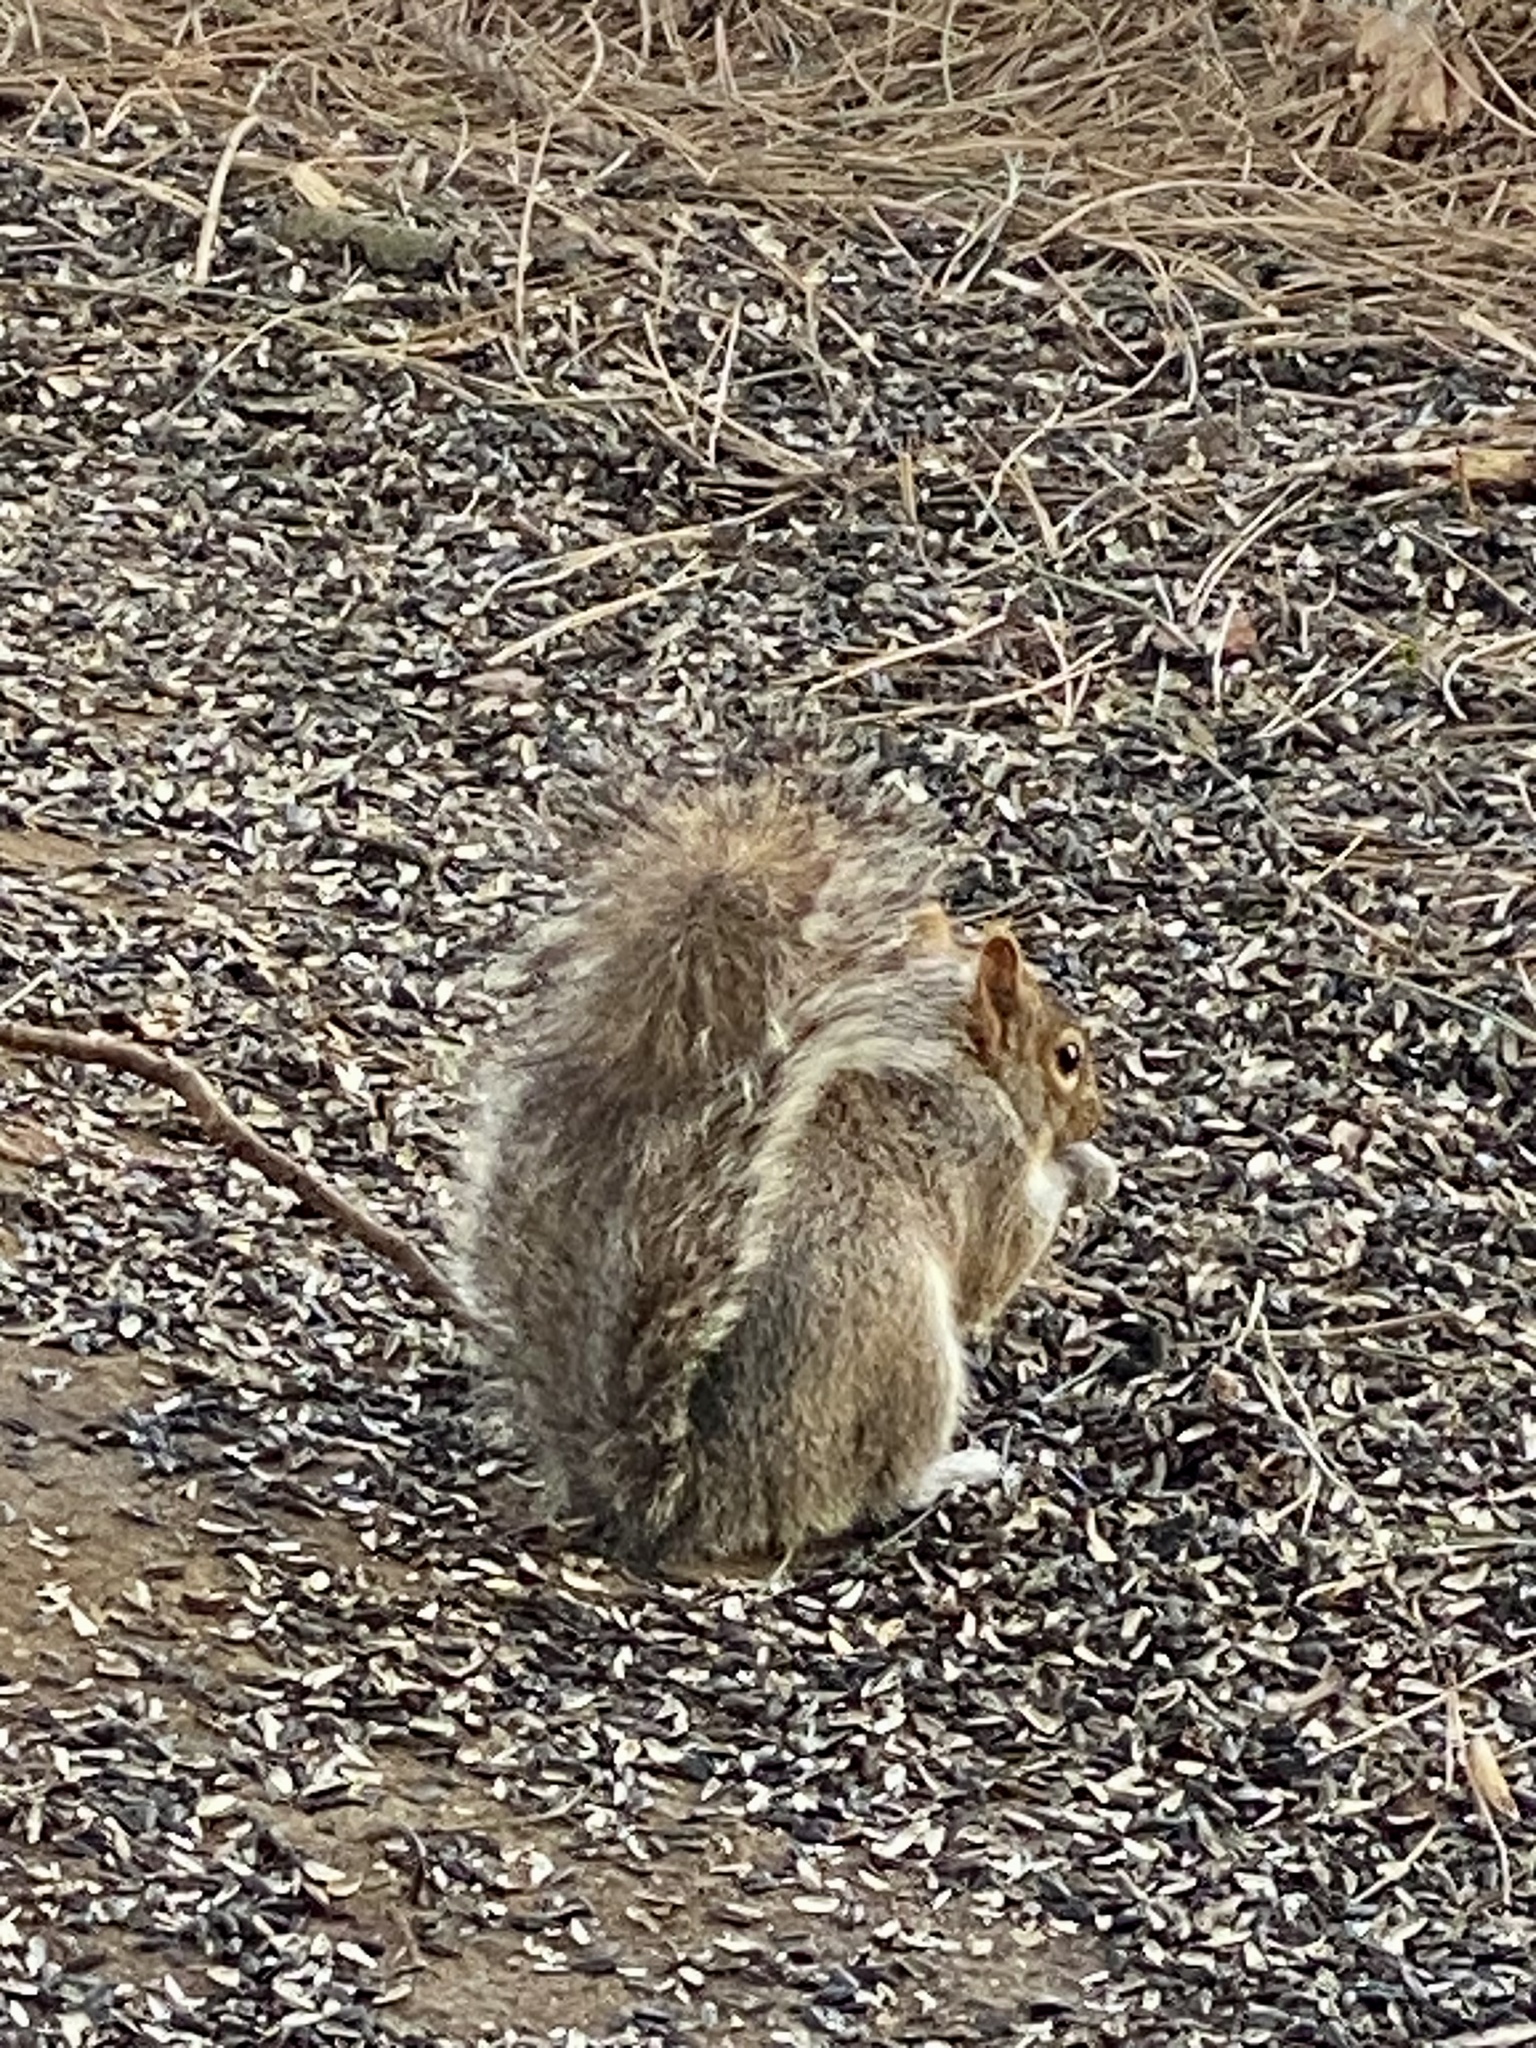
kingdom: Animalia
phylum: Chordata
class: Mammalia
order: Rodentia
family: Sciuridae
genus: Sciurus
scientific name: Sciurus carolinensis
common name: Eastern gray squirrel
